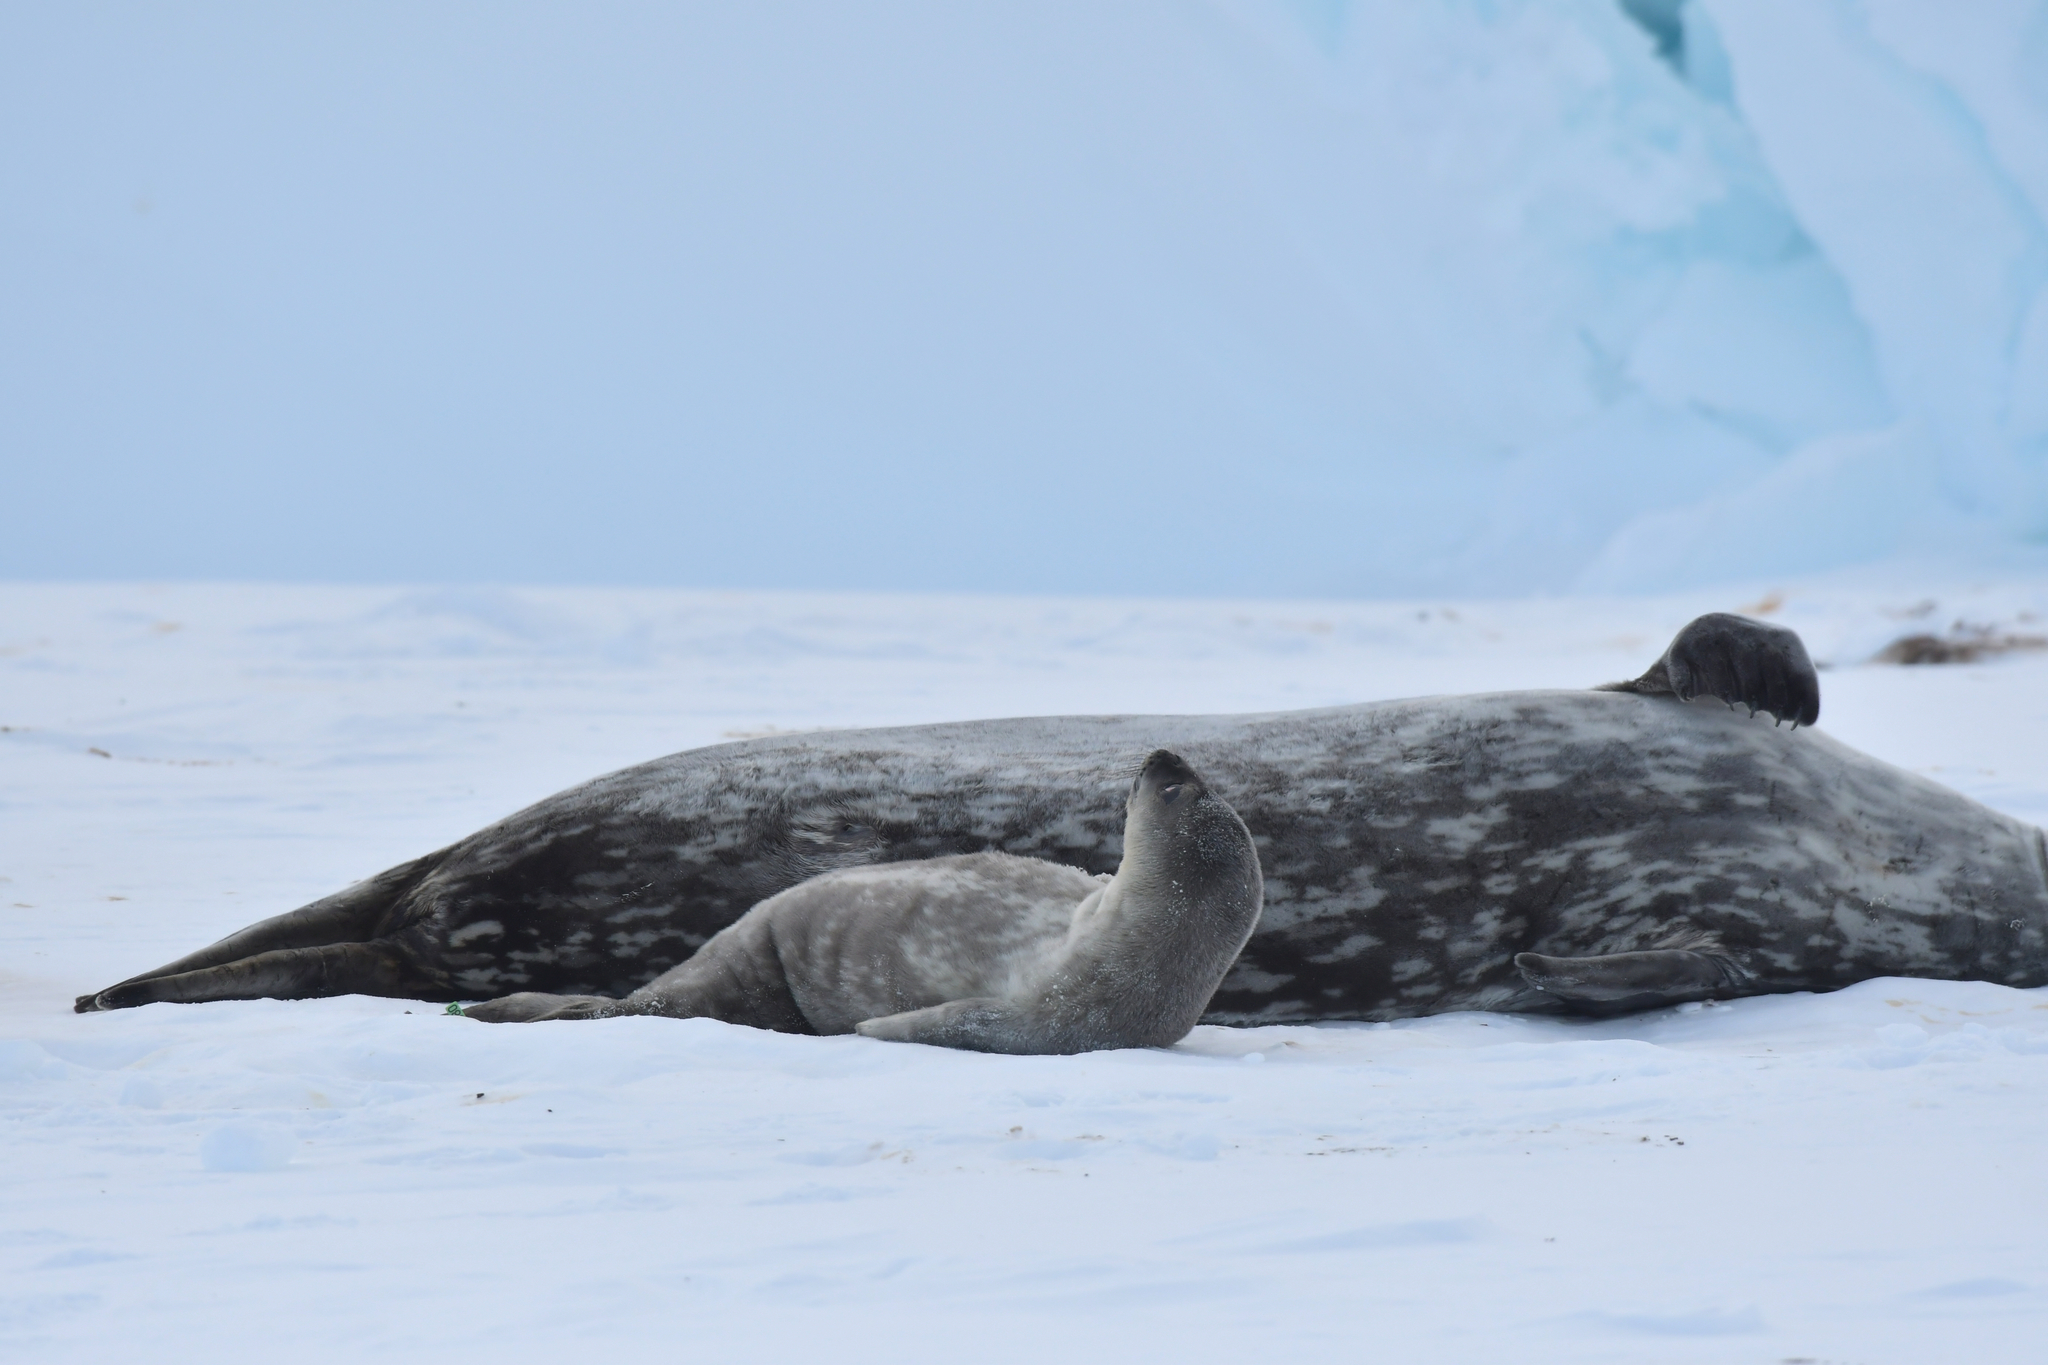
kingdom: Animalia
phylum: Chordata
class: Mammalia
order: Carnivora
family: Phocidae
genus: Leptonychotes
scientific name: Leptonychotes weddellii
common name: Weddell seal
